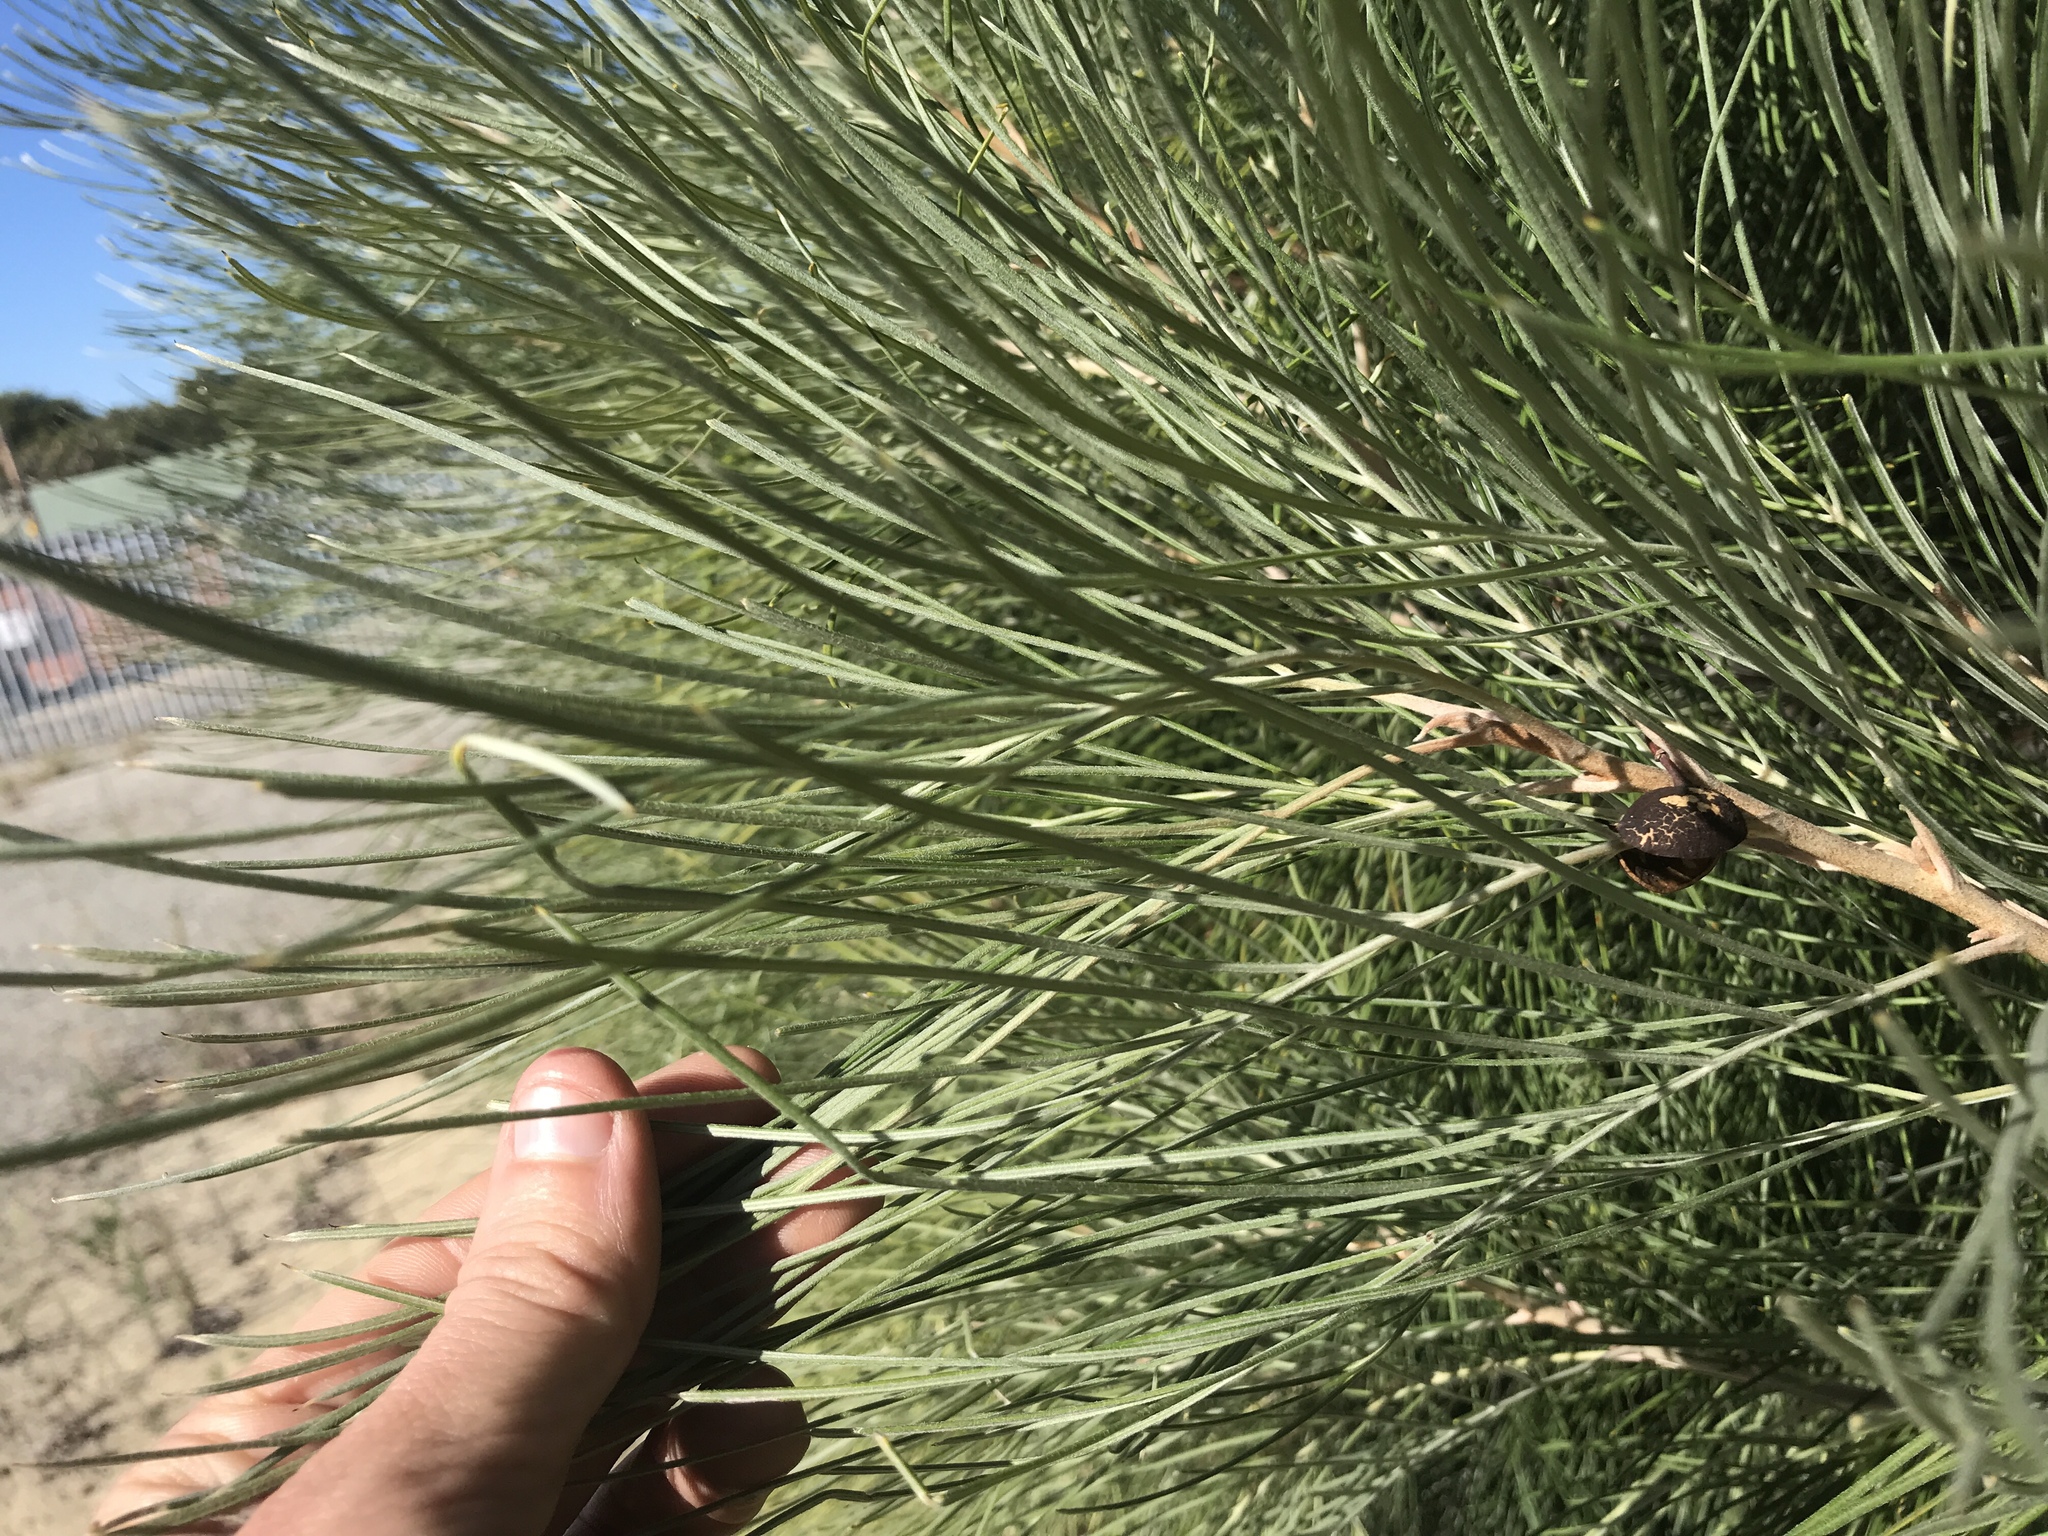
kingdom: Plantae
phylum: Tracheophyta
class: Magnoliopsida
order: Proteales
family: Proteaceae
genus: Grevillea
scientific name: Grevillea leucopteris
